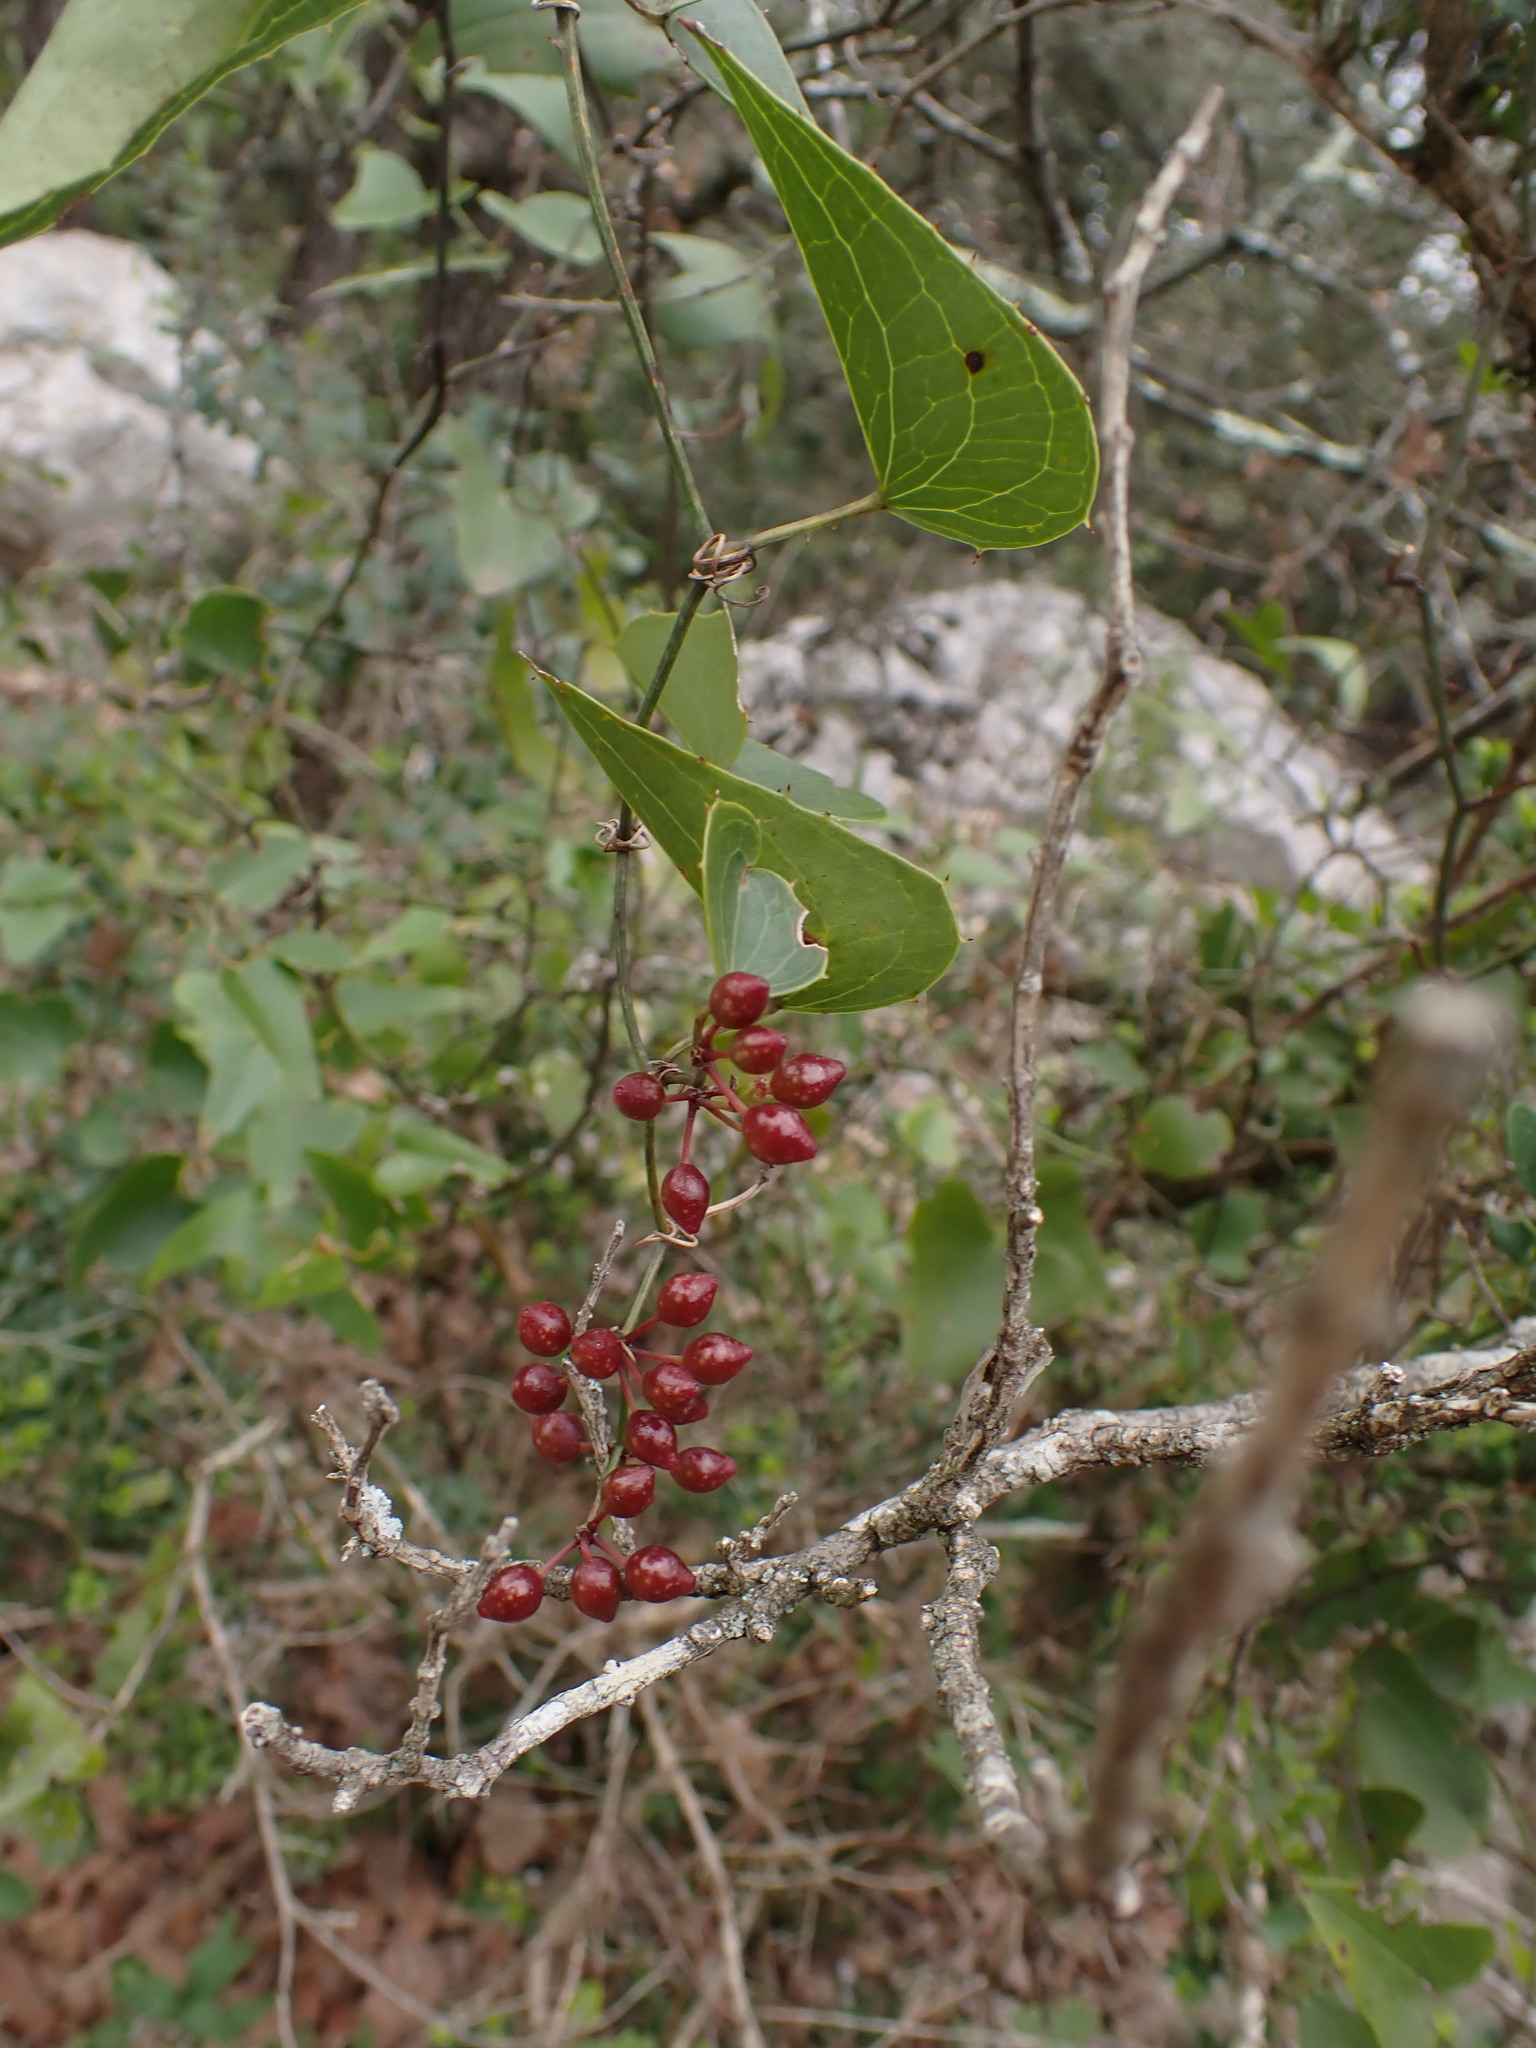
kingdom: Plantae
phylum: Tracheophyta
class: Liliopsida
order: Liliales
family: Smilacaceae
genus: Smilax
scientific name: Smilax aspera
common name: Common smilax
